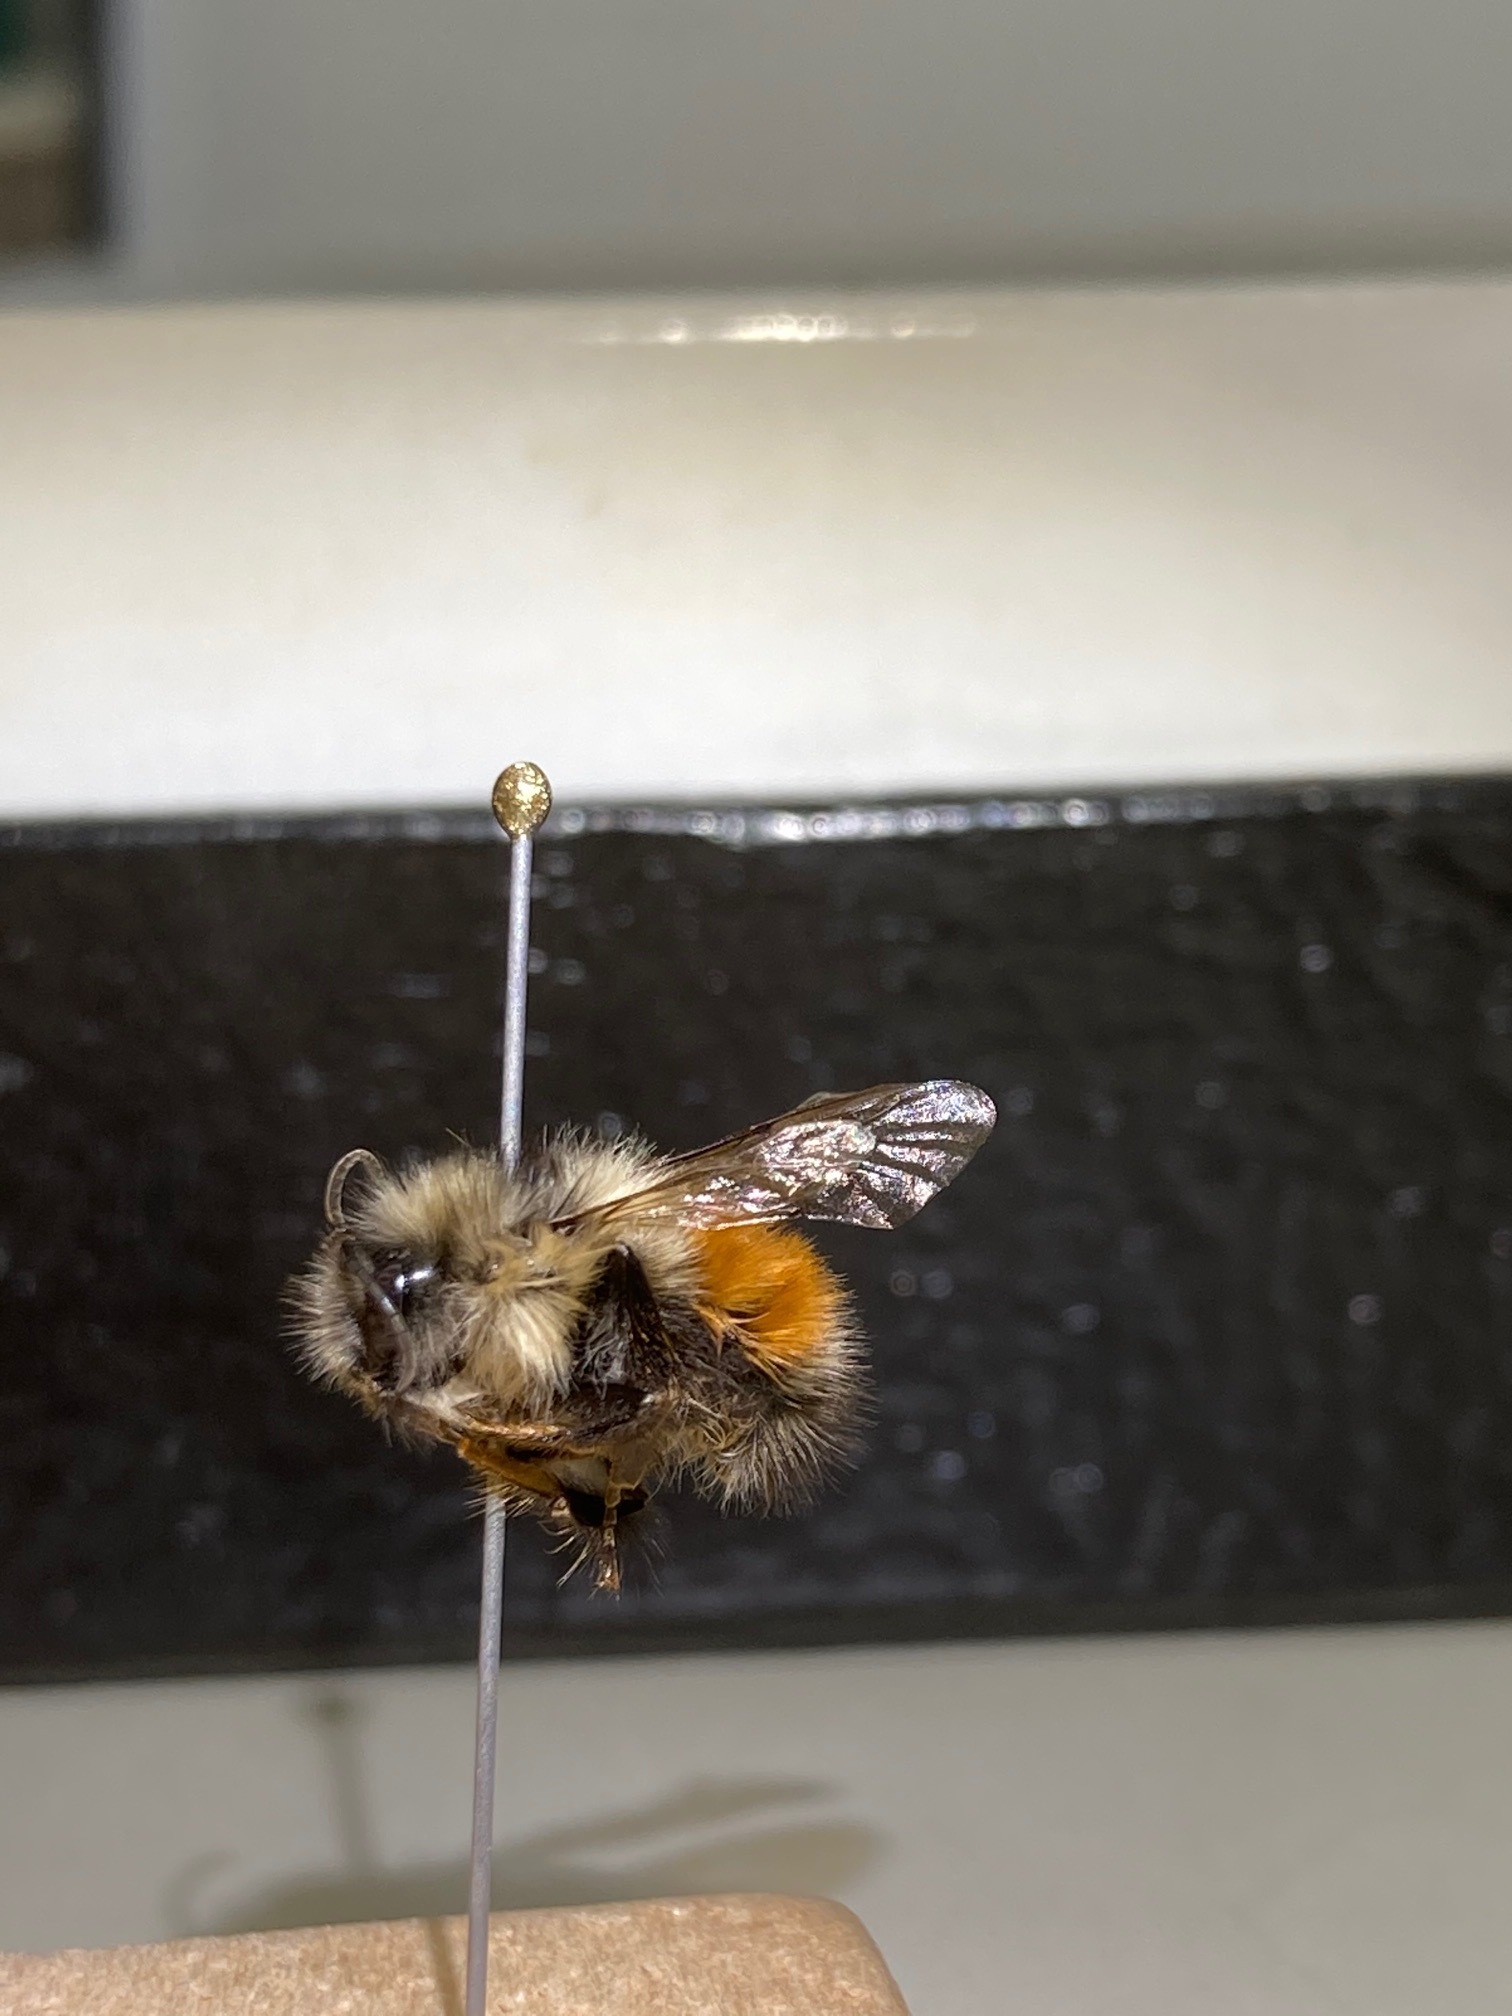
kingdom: Animalia
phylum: Arthropoda
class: Insecta
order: Hymenoptera
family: Apidae
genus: Bombus
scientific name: Bombus melanopygus
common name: Black tail bumble bee
